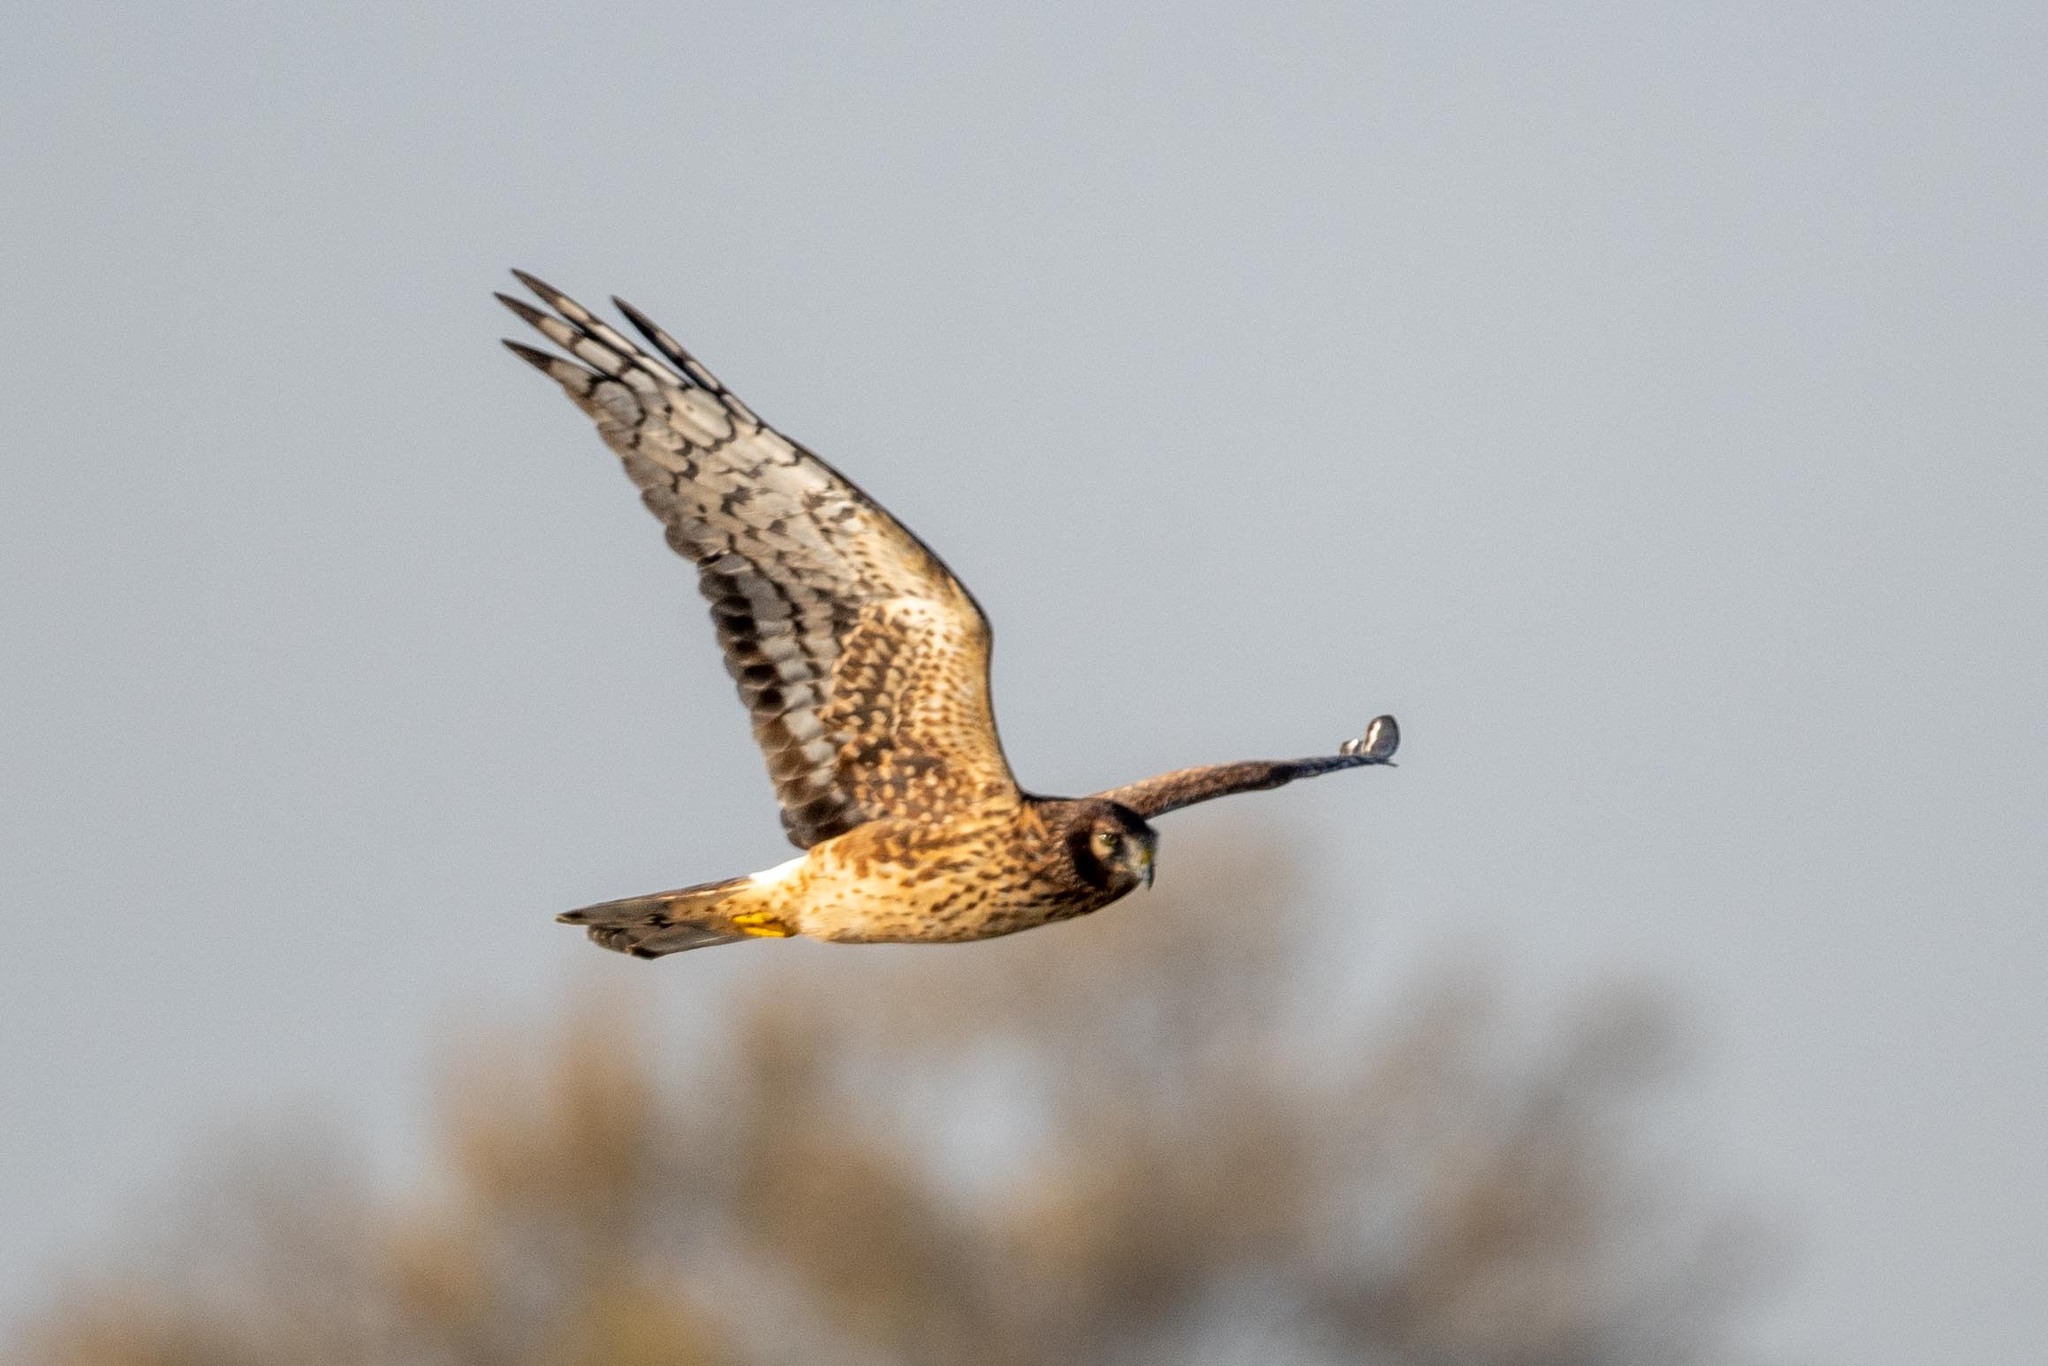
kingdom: Animalia
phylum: Chordata
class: Aves
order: Accipitriformes
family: Accipitridae
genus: Circus
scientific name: Circus cyaneus
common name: Hen harrier
